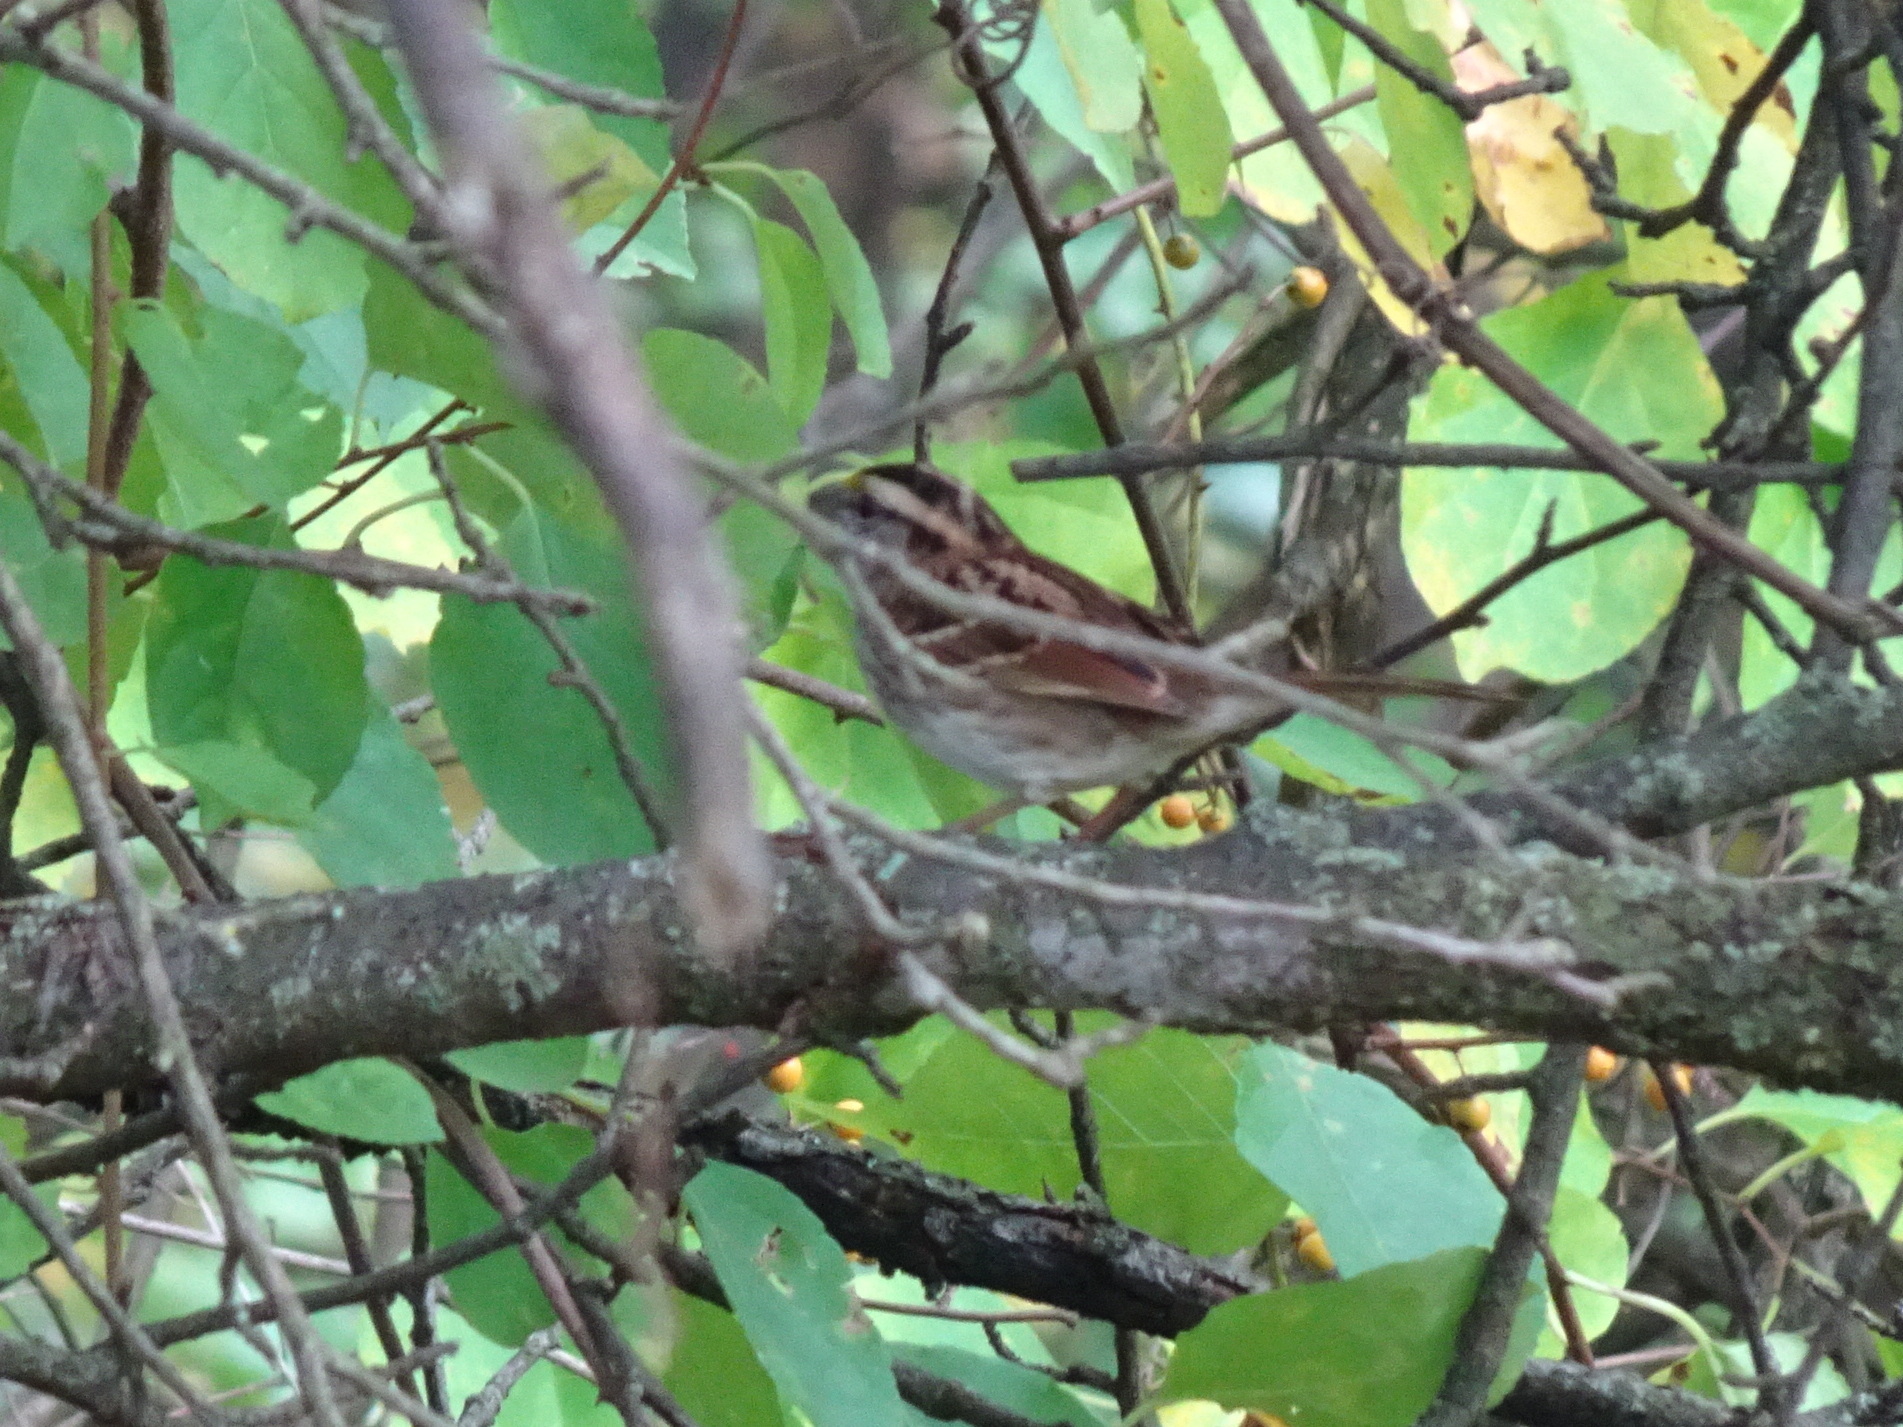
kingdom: Animalia
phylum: Chordata
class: Aves
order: Passeriformes
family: Passerellidae
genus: Zonotrichia
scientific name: Zonotrichia albicollis
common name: White-throated sparrow
